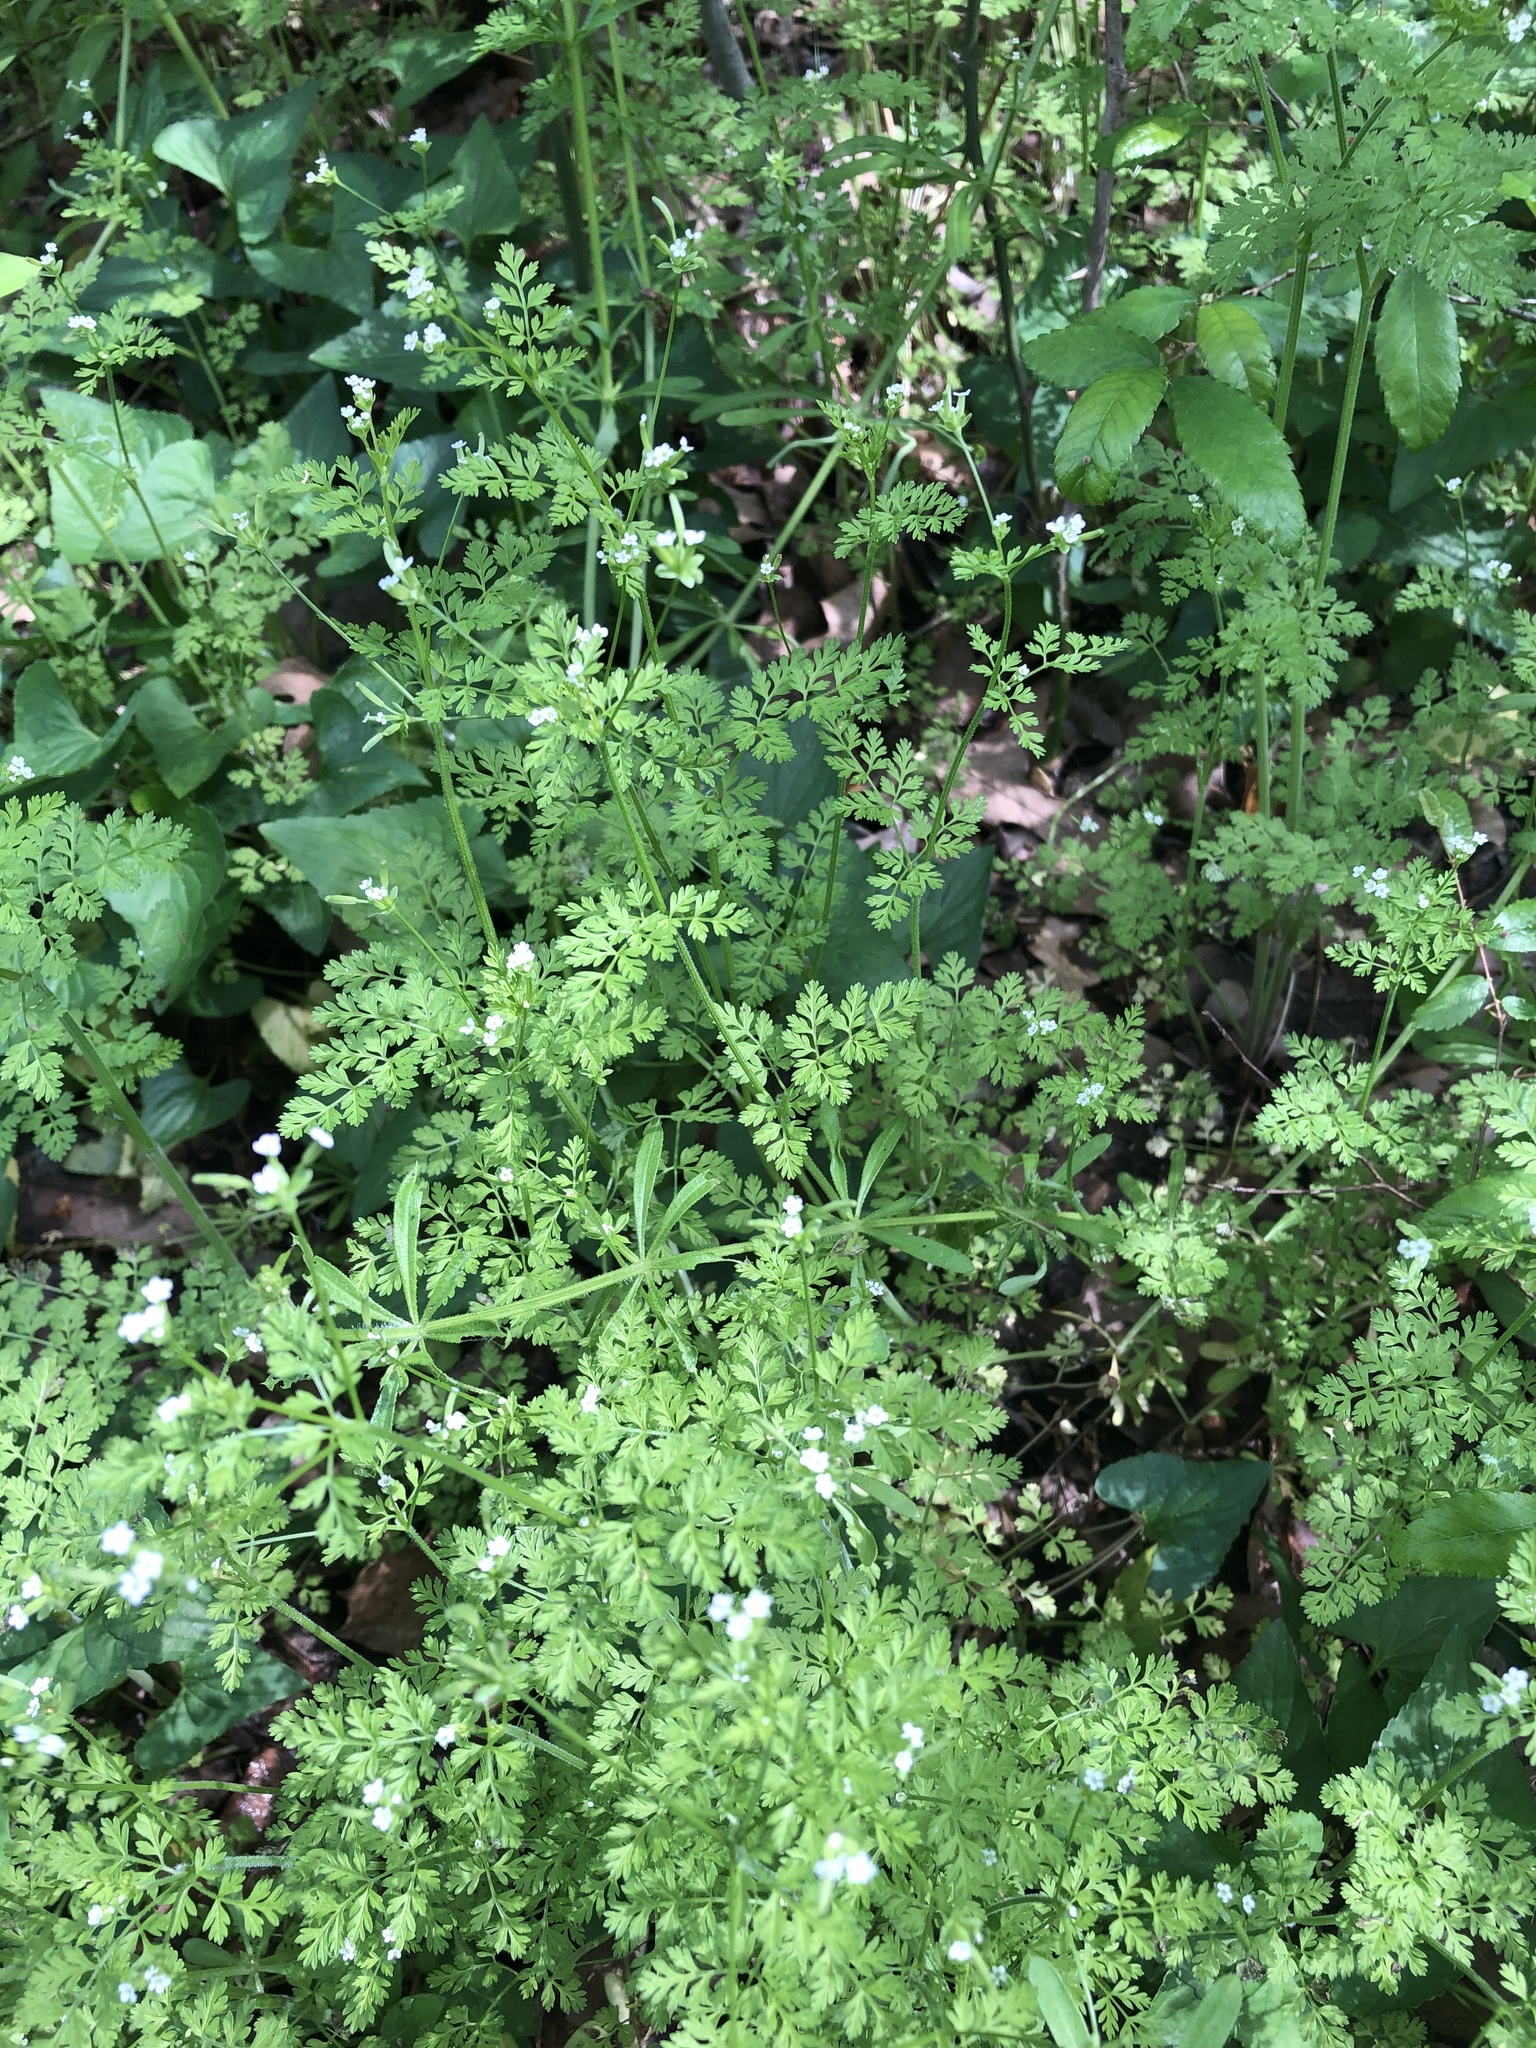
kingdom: Plantae
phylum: Tracheophyta
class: Magnoliopsida
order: Apiales
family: Apiaceae
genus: Chaerophyllum
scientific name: Chaerophyllum tainturieri
